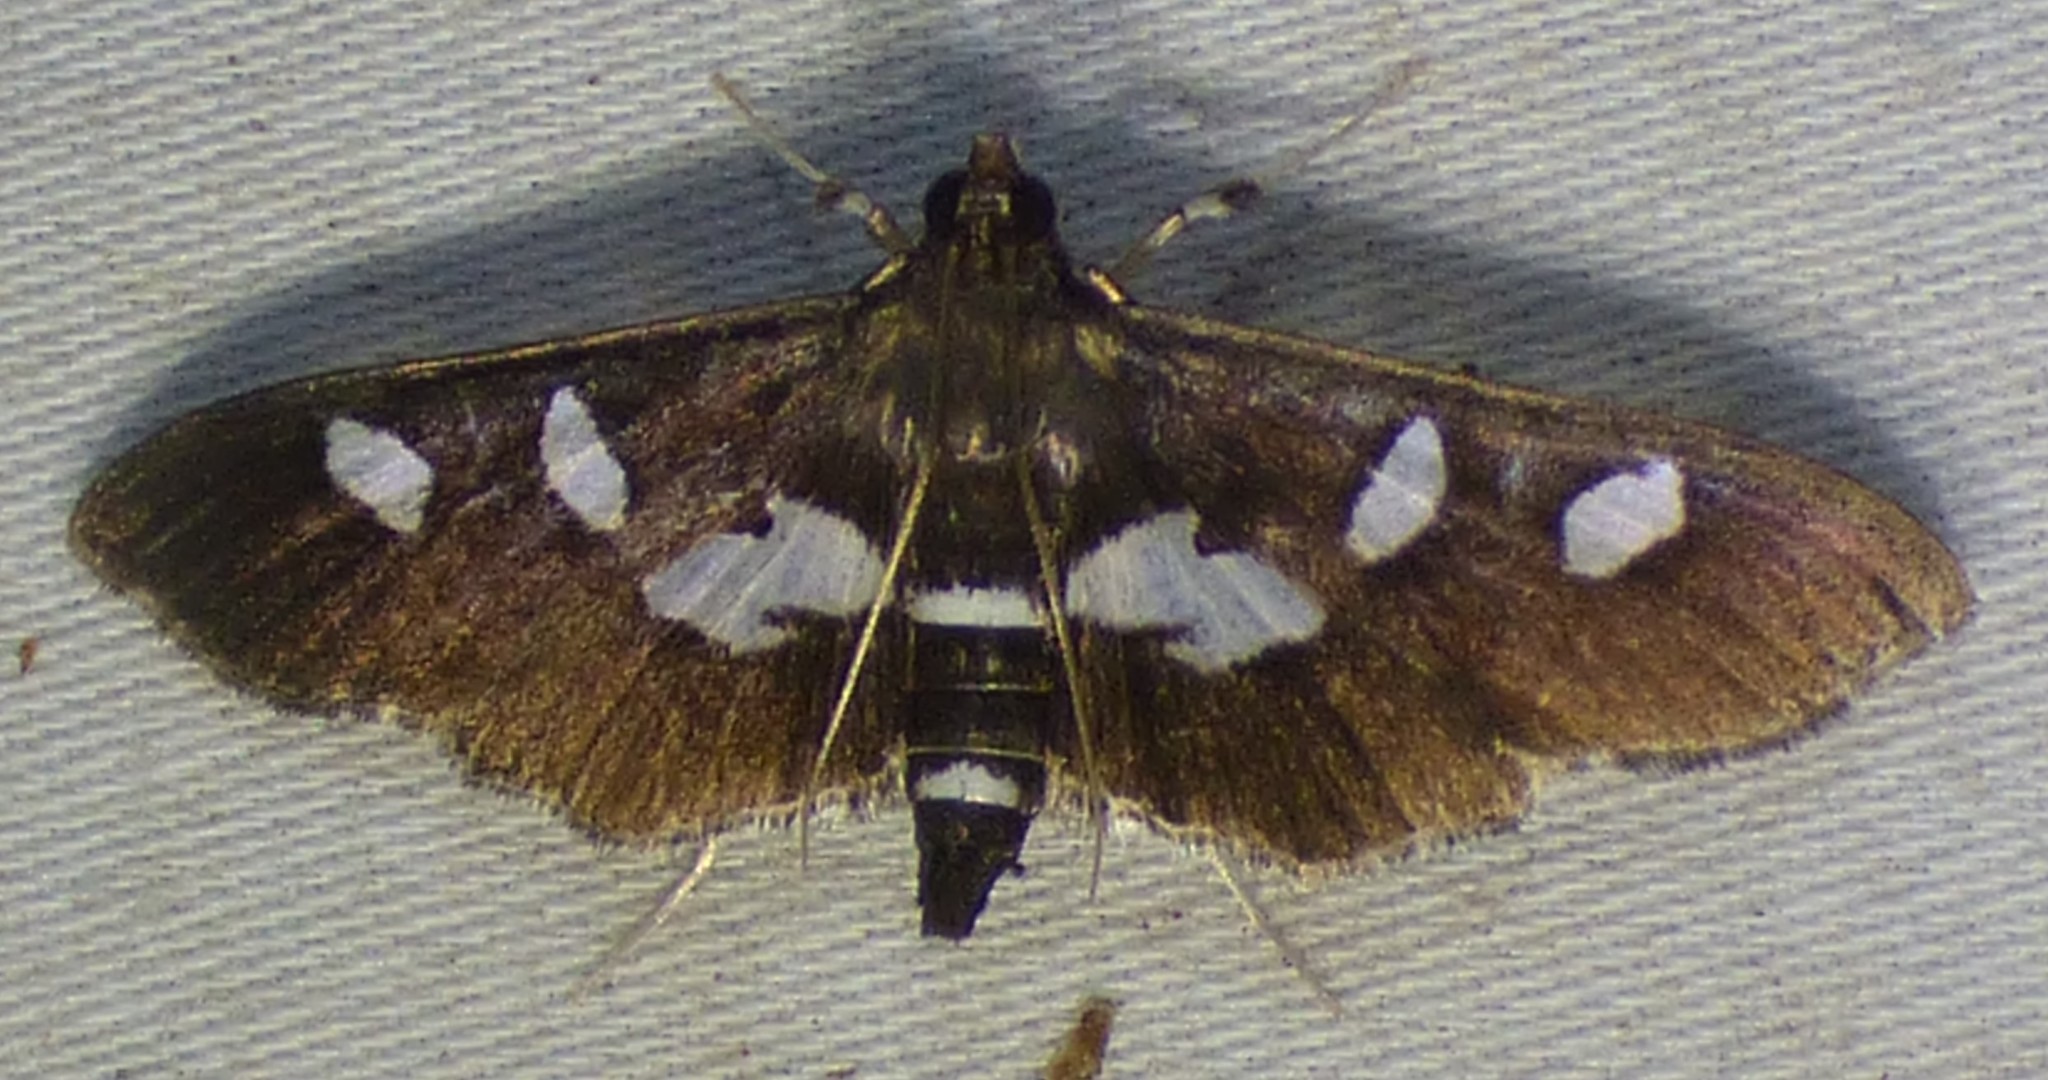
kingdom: Animalia
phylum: Arthropoda
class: Insecta
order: Lepidoptera
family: Crambidae
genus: Desmia
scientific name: Desmia funeralis
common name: Grape leaf folder moth
